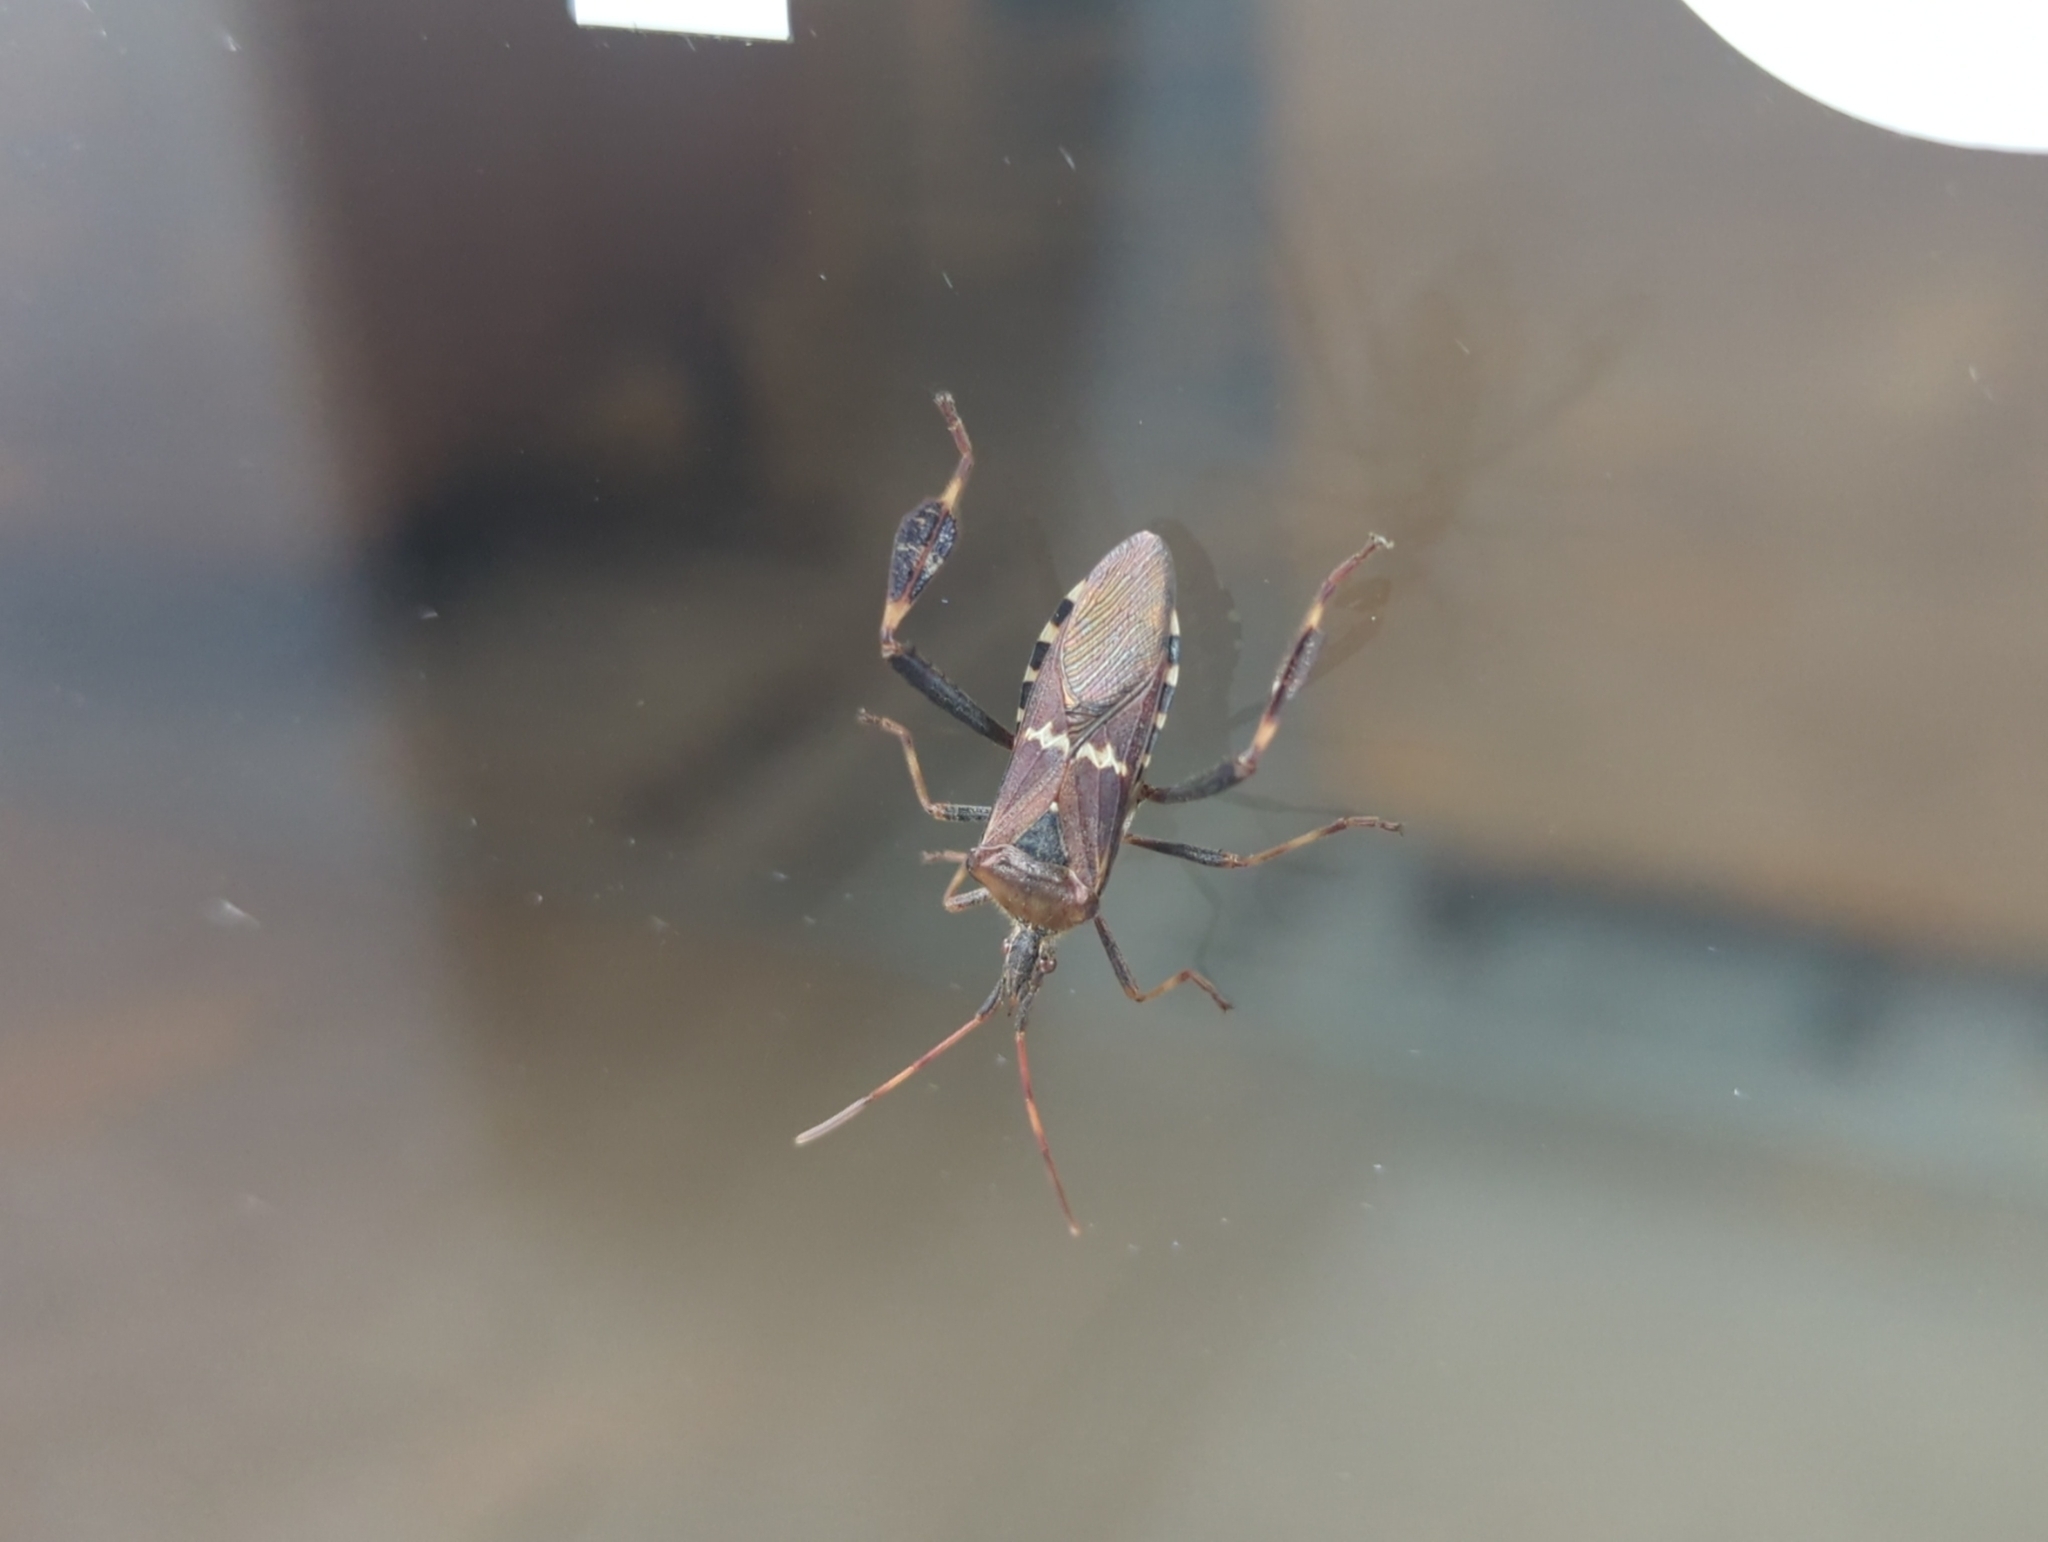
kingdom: Animalia
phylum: Arthropoda
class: Insecta
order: Hemiptera
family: Coreidae
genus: Leptoglossus
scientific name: Leptoglossus clypealis
